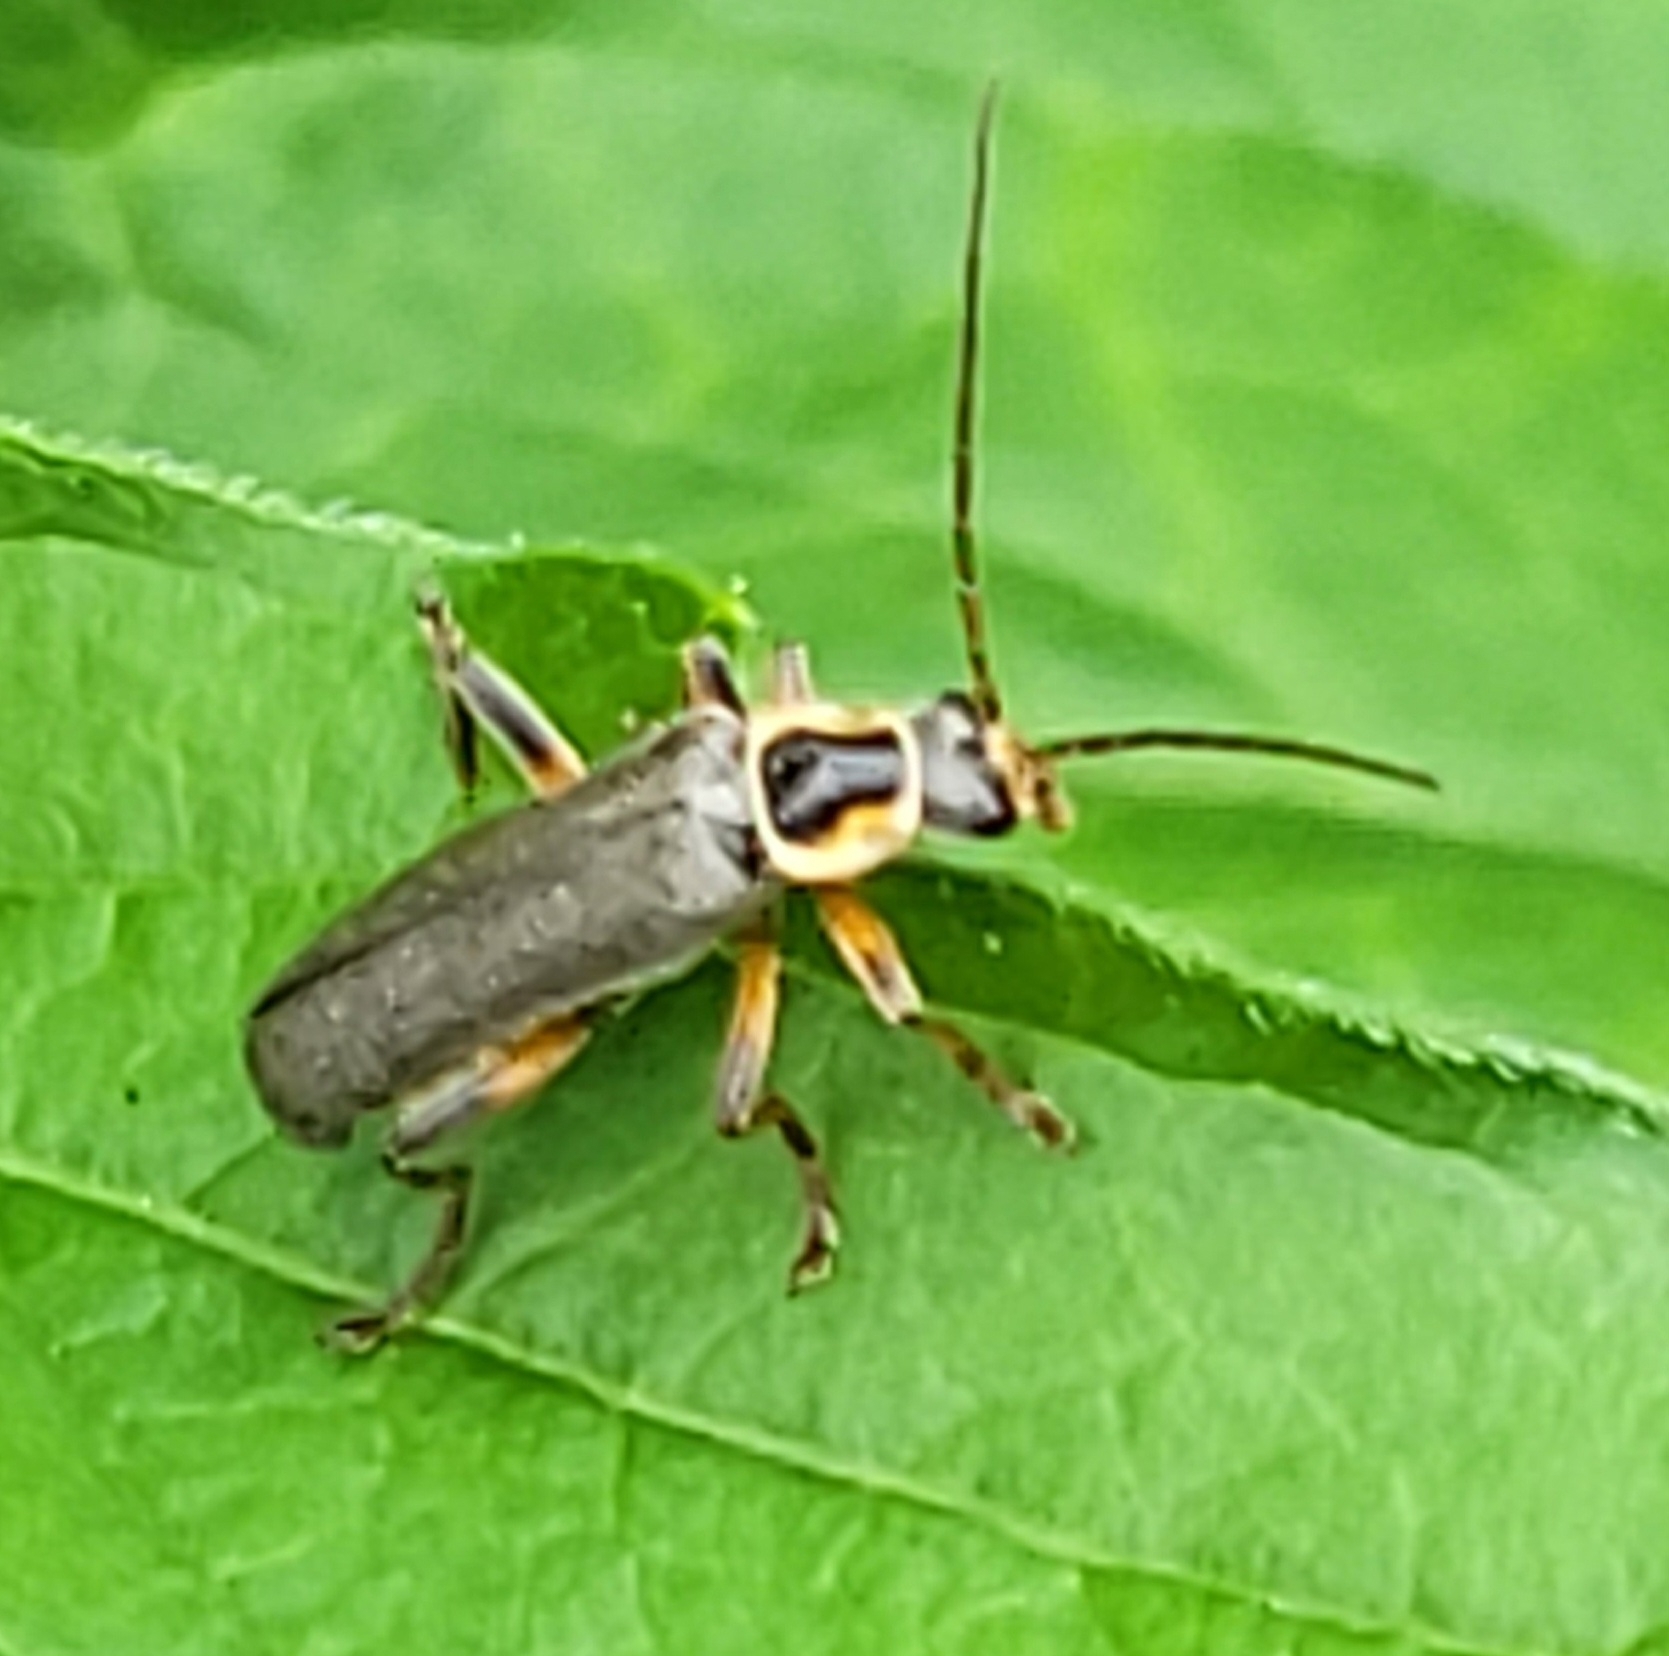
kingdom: Animalia
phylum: Arthropoda
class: Insecta
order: Coleoptera
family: Cantharidae
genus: Cantharis
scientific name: Cantharis nigricans
